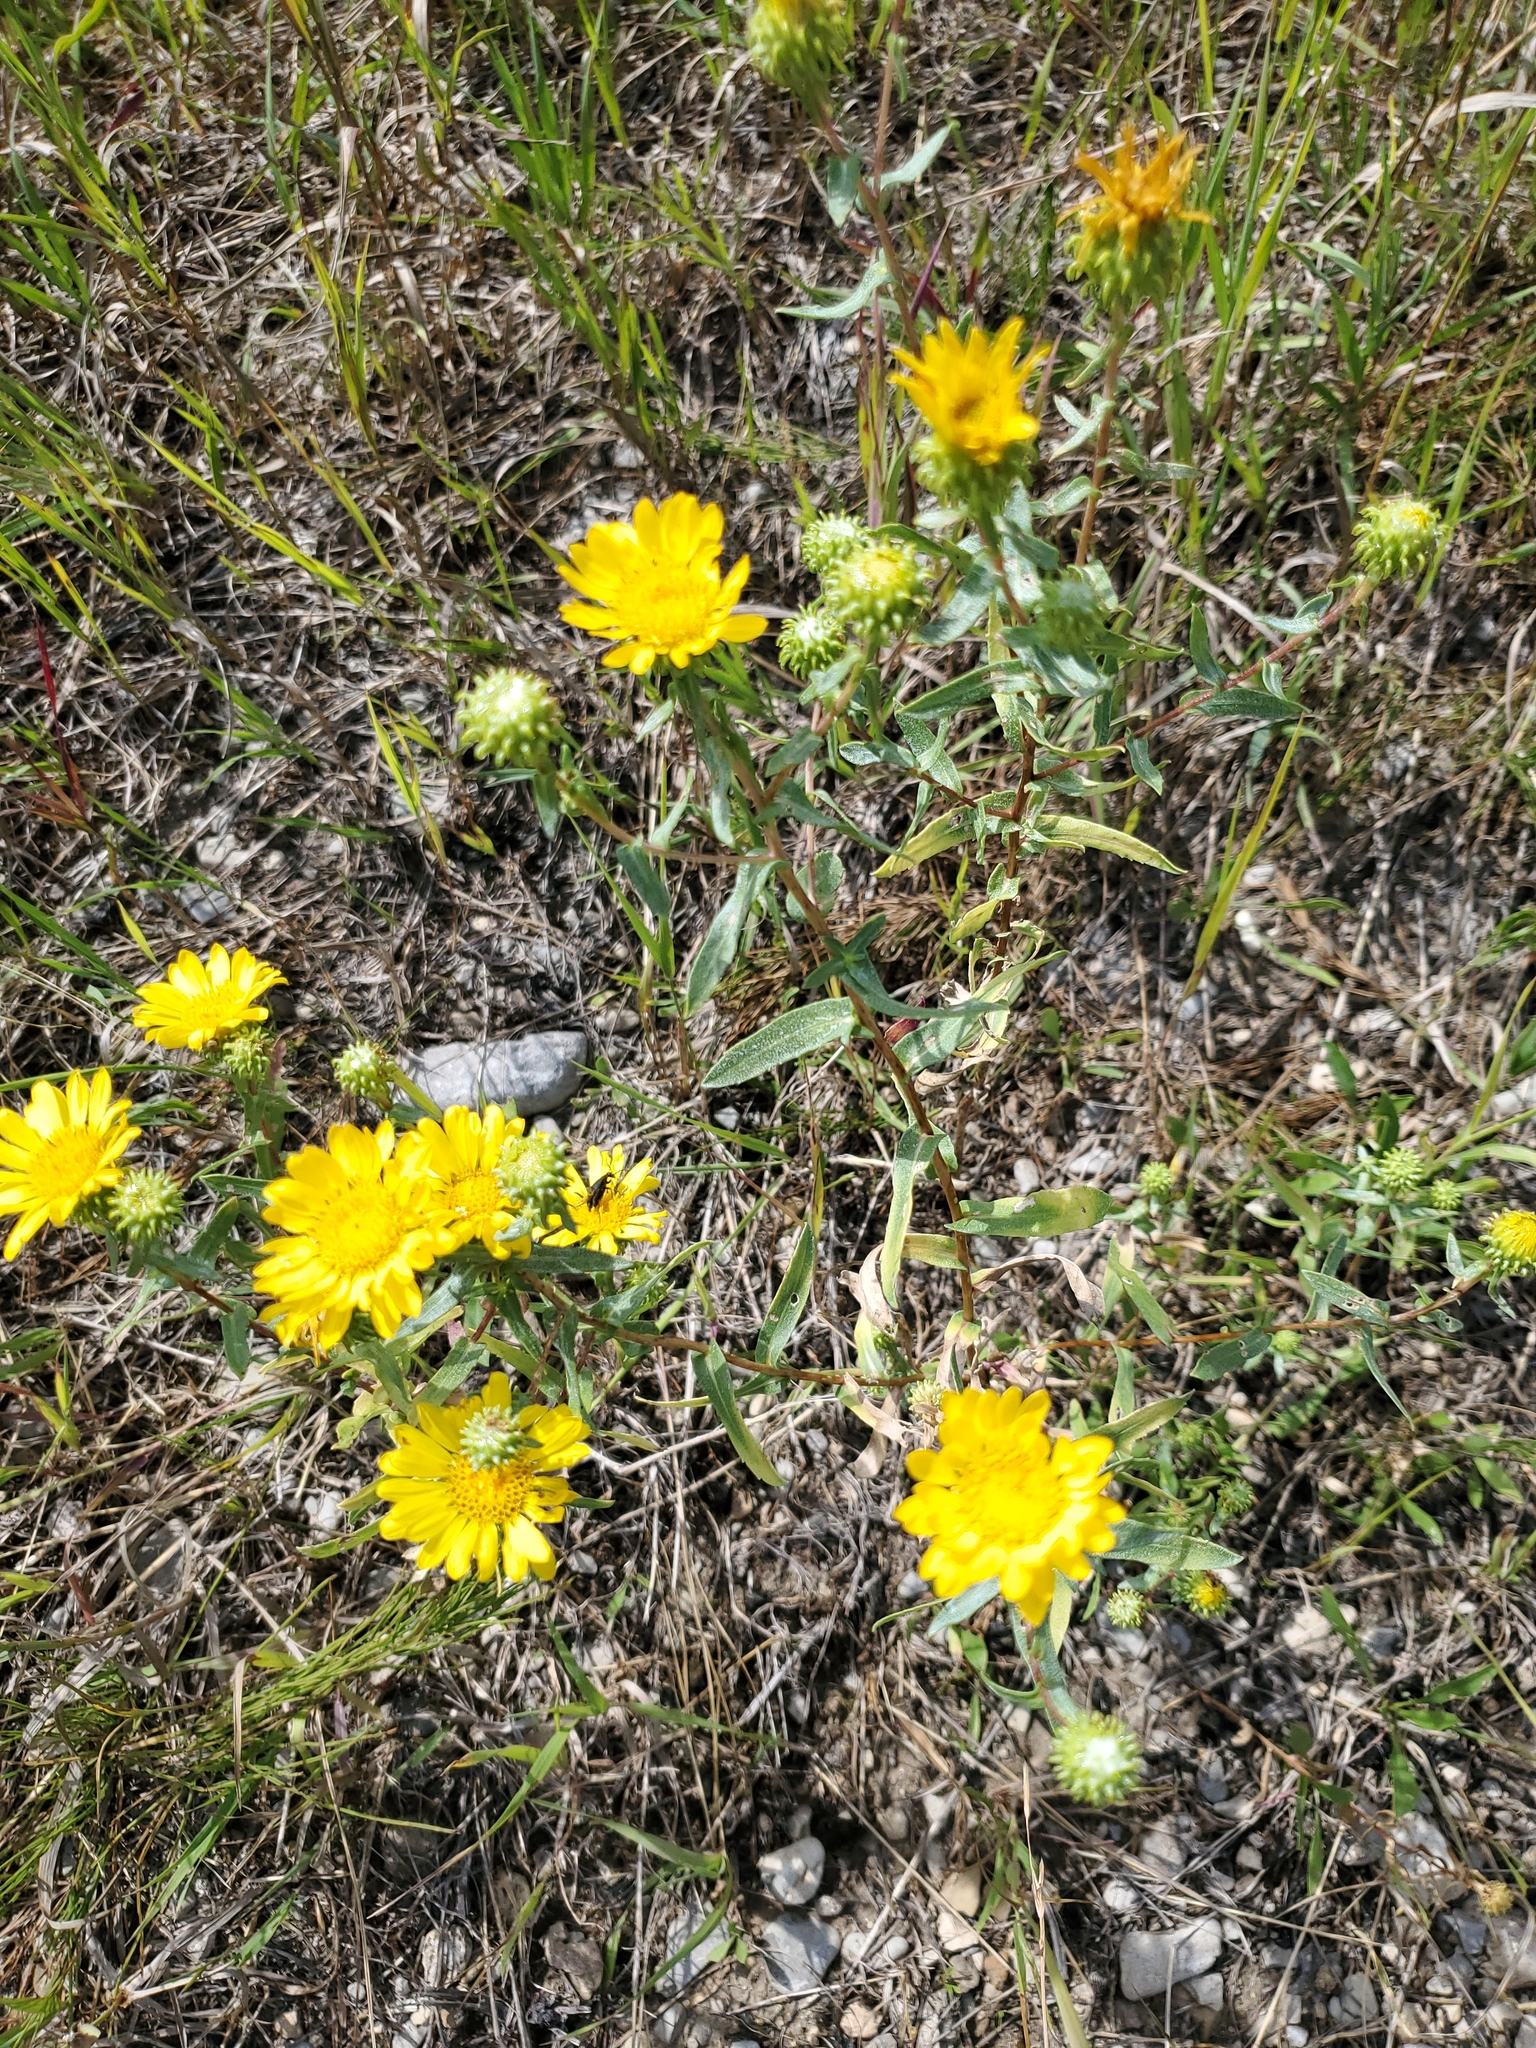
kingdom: Plantae
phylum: Tracheophyta
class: Magnoliopsida
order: Asterales
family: Asteraceae
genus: Grindelia
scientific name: Grindelia squarrosa
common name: Curly-cup gumweed
